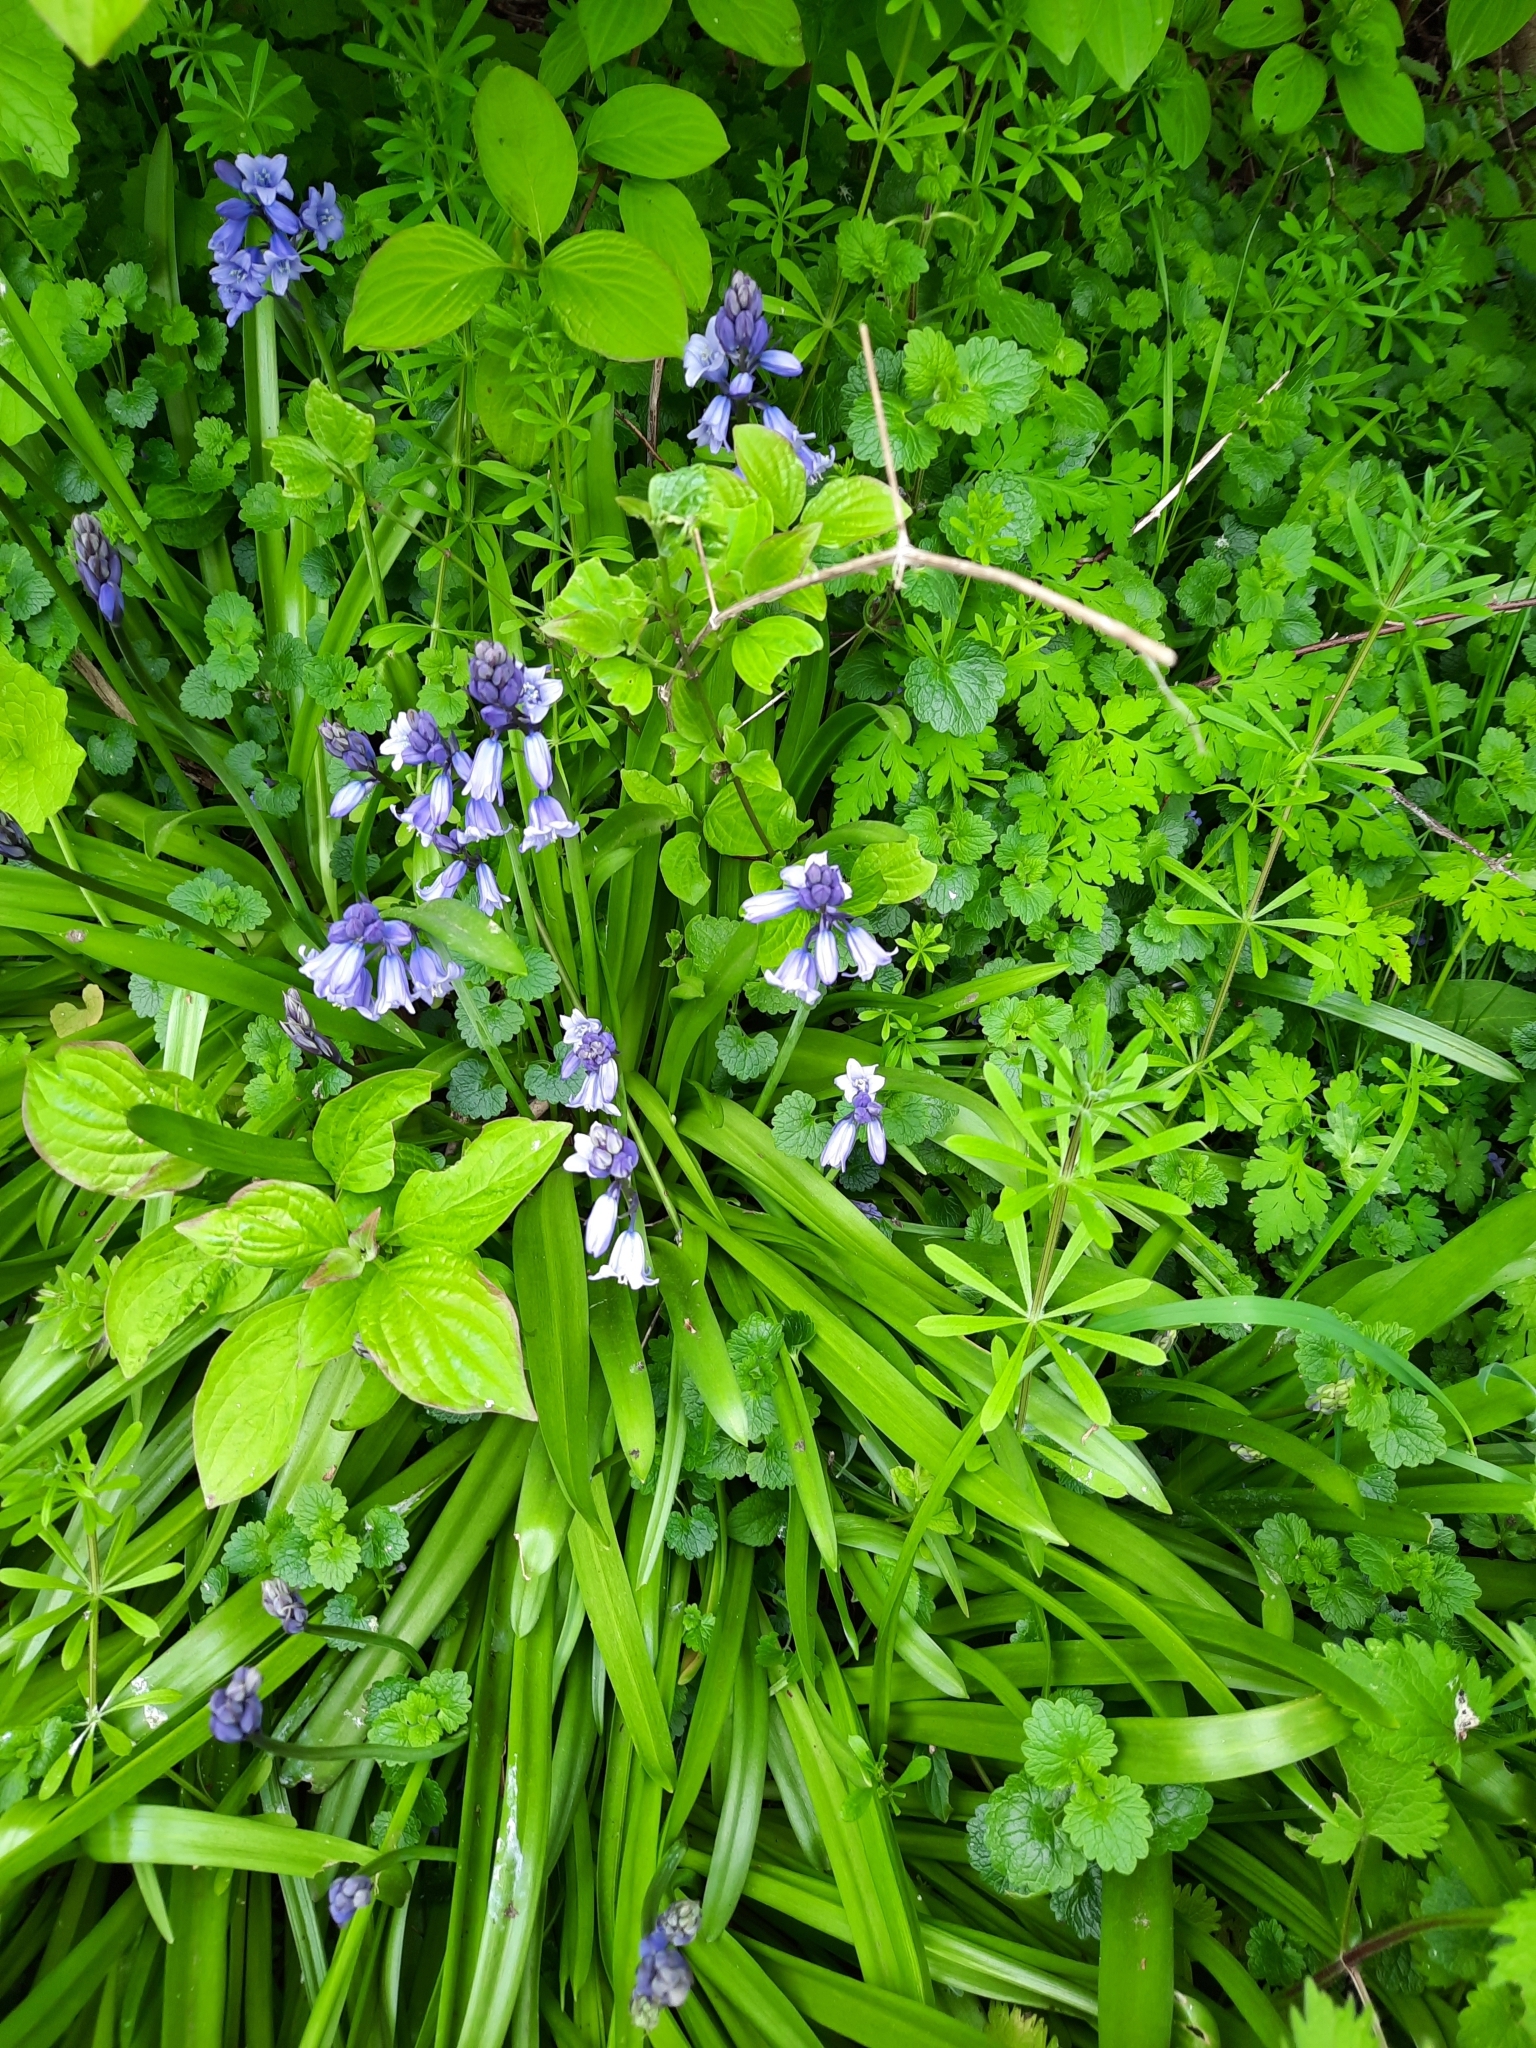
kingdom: Plantae
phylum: Tracheophyta
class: Liliopsida
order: Asparagales
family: Asparagaceae
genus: Hyacinthoides
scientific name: Hyacinthoides massartiana
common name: Hyacinthoides
